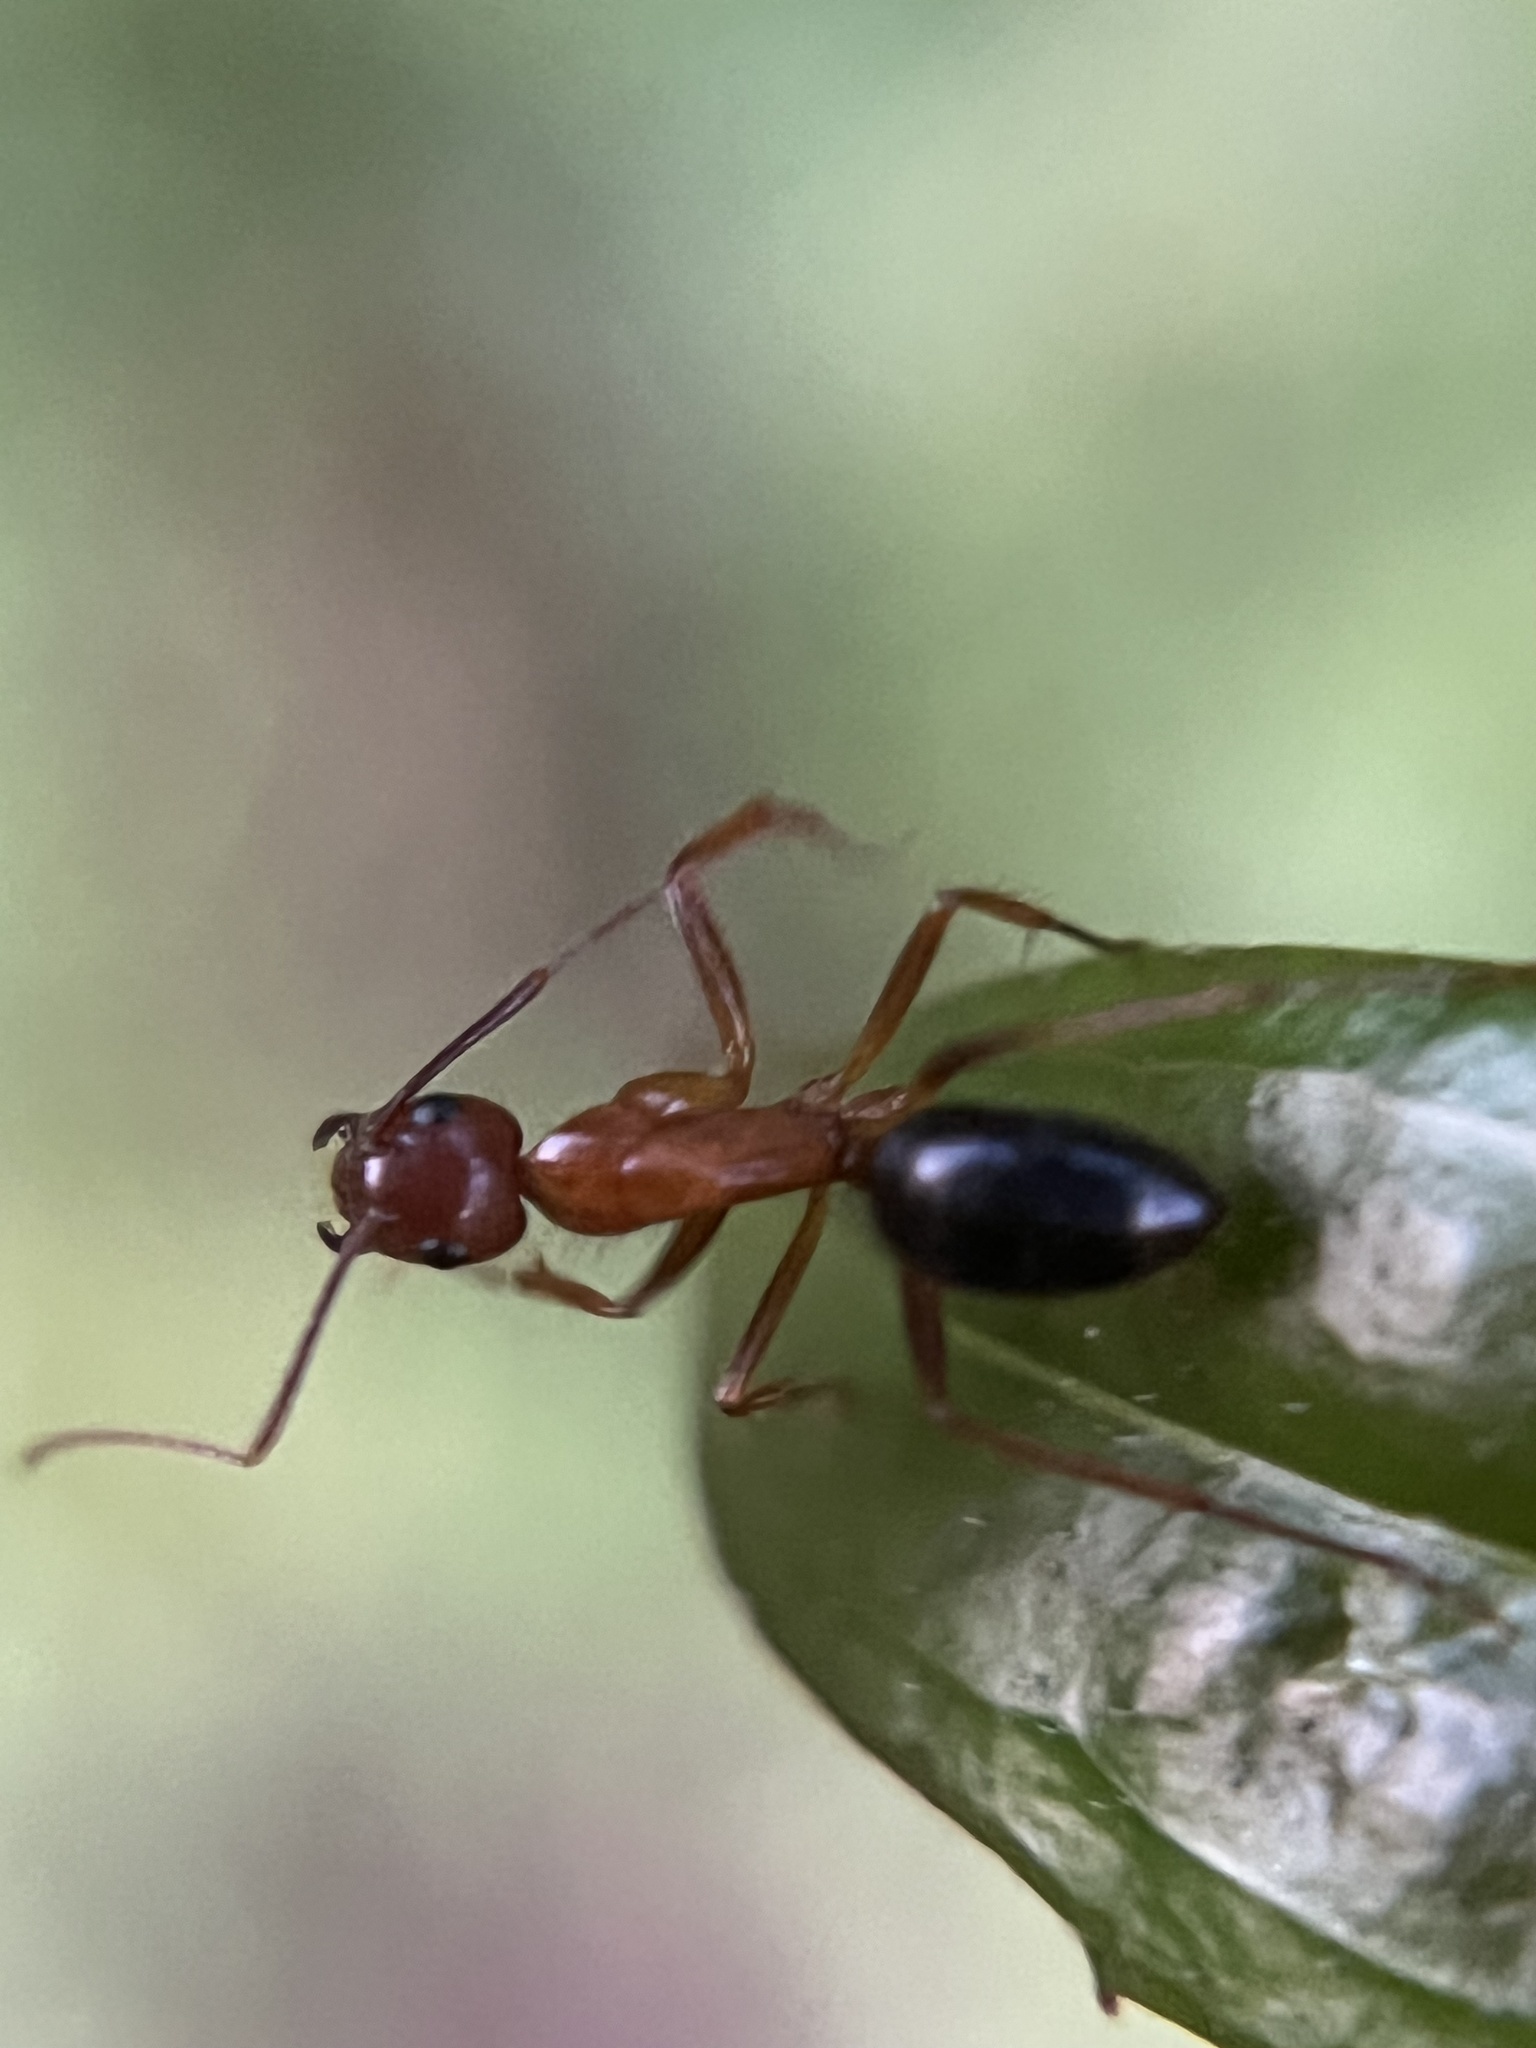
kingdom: Animalia
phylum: Arthropoda
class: Insecta
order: Hymenoptera
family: Formicidae
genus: Camponotus
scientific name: Camponotus floridanus
